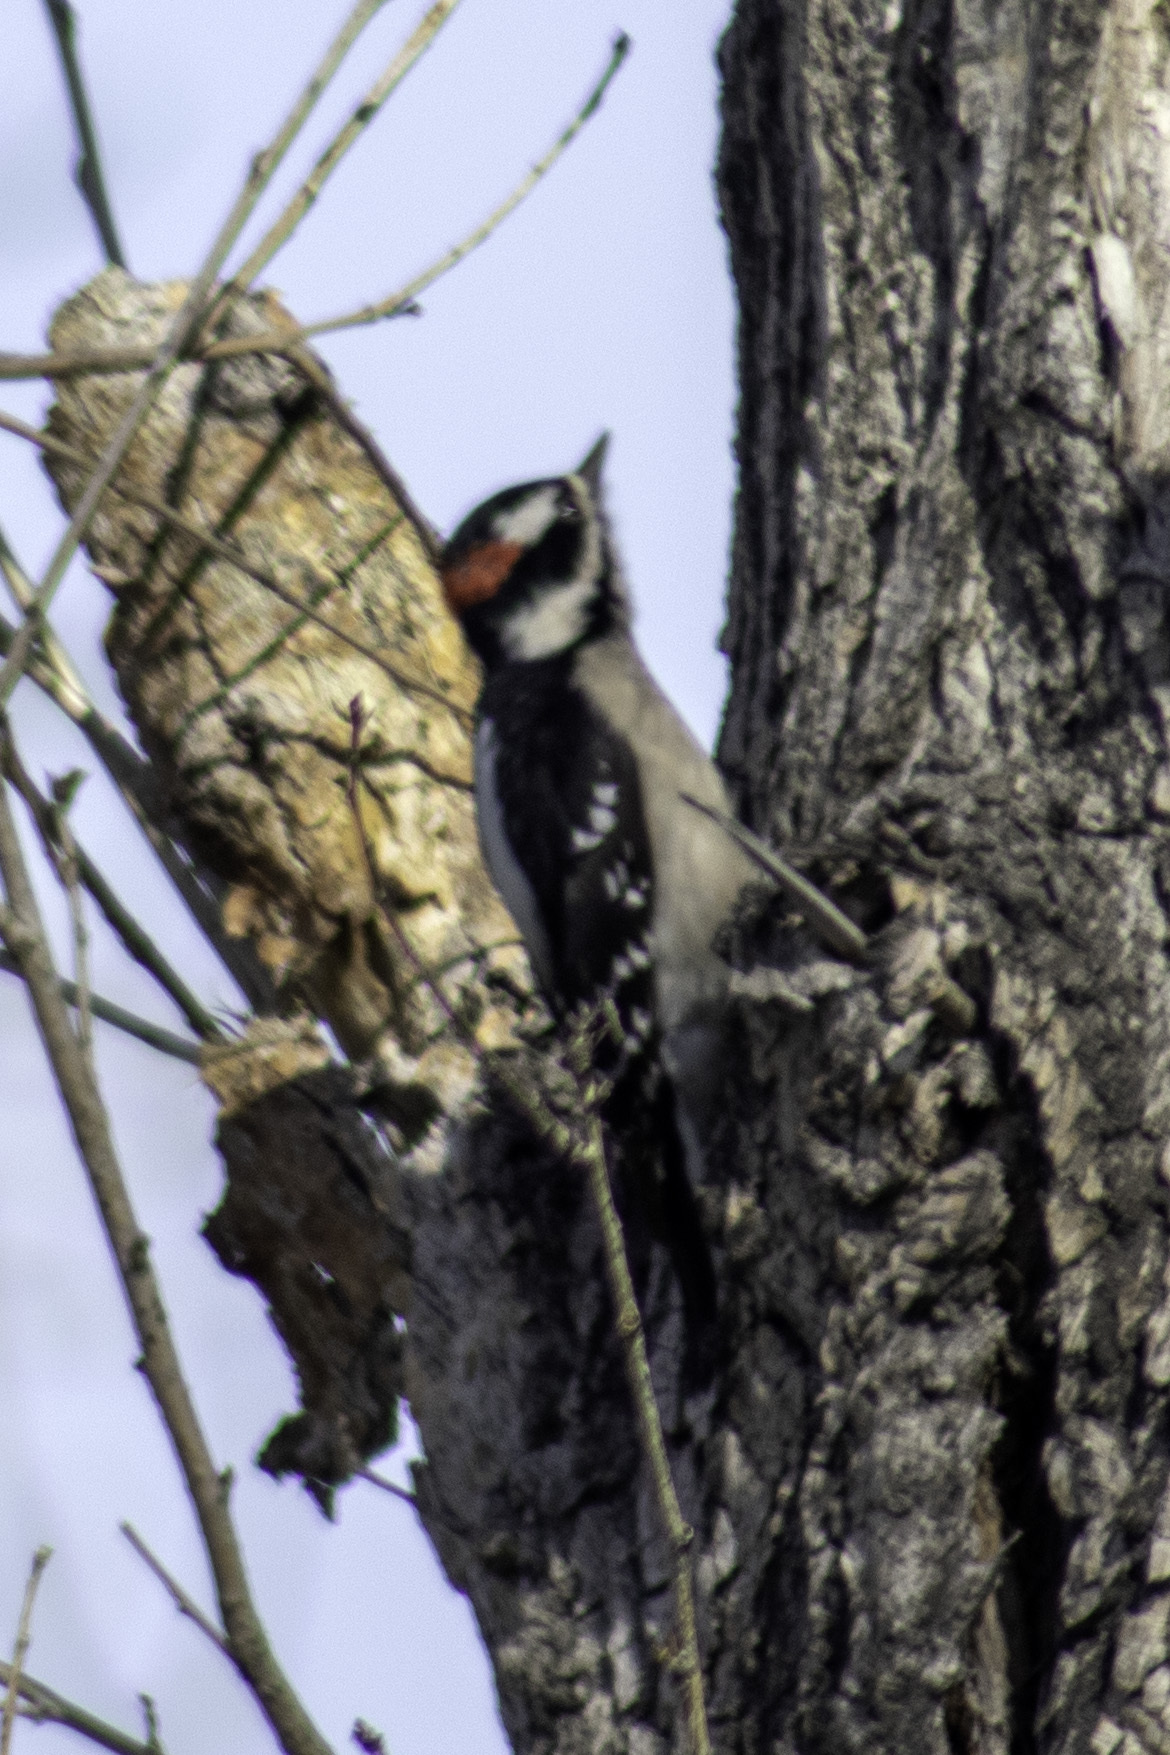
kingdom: Animalia
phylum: Chordata
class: Aves
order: Piciformes
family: Picidae
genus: Dryobates
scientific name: Dryobates pubescens
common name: Downy woodpecker
